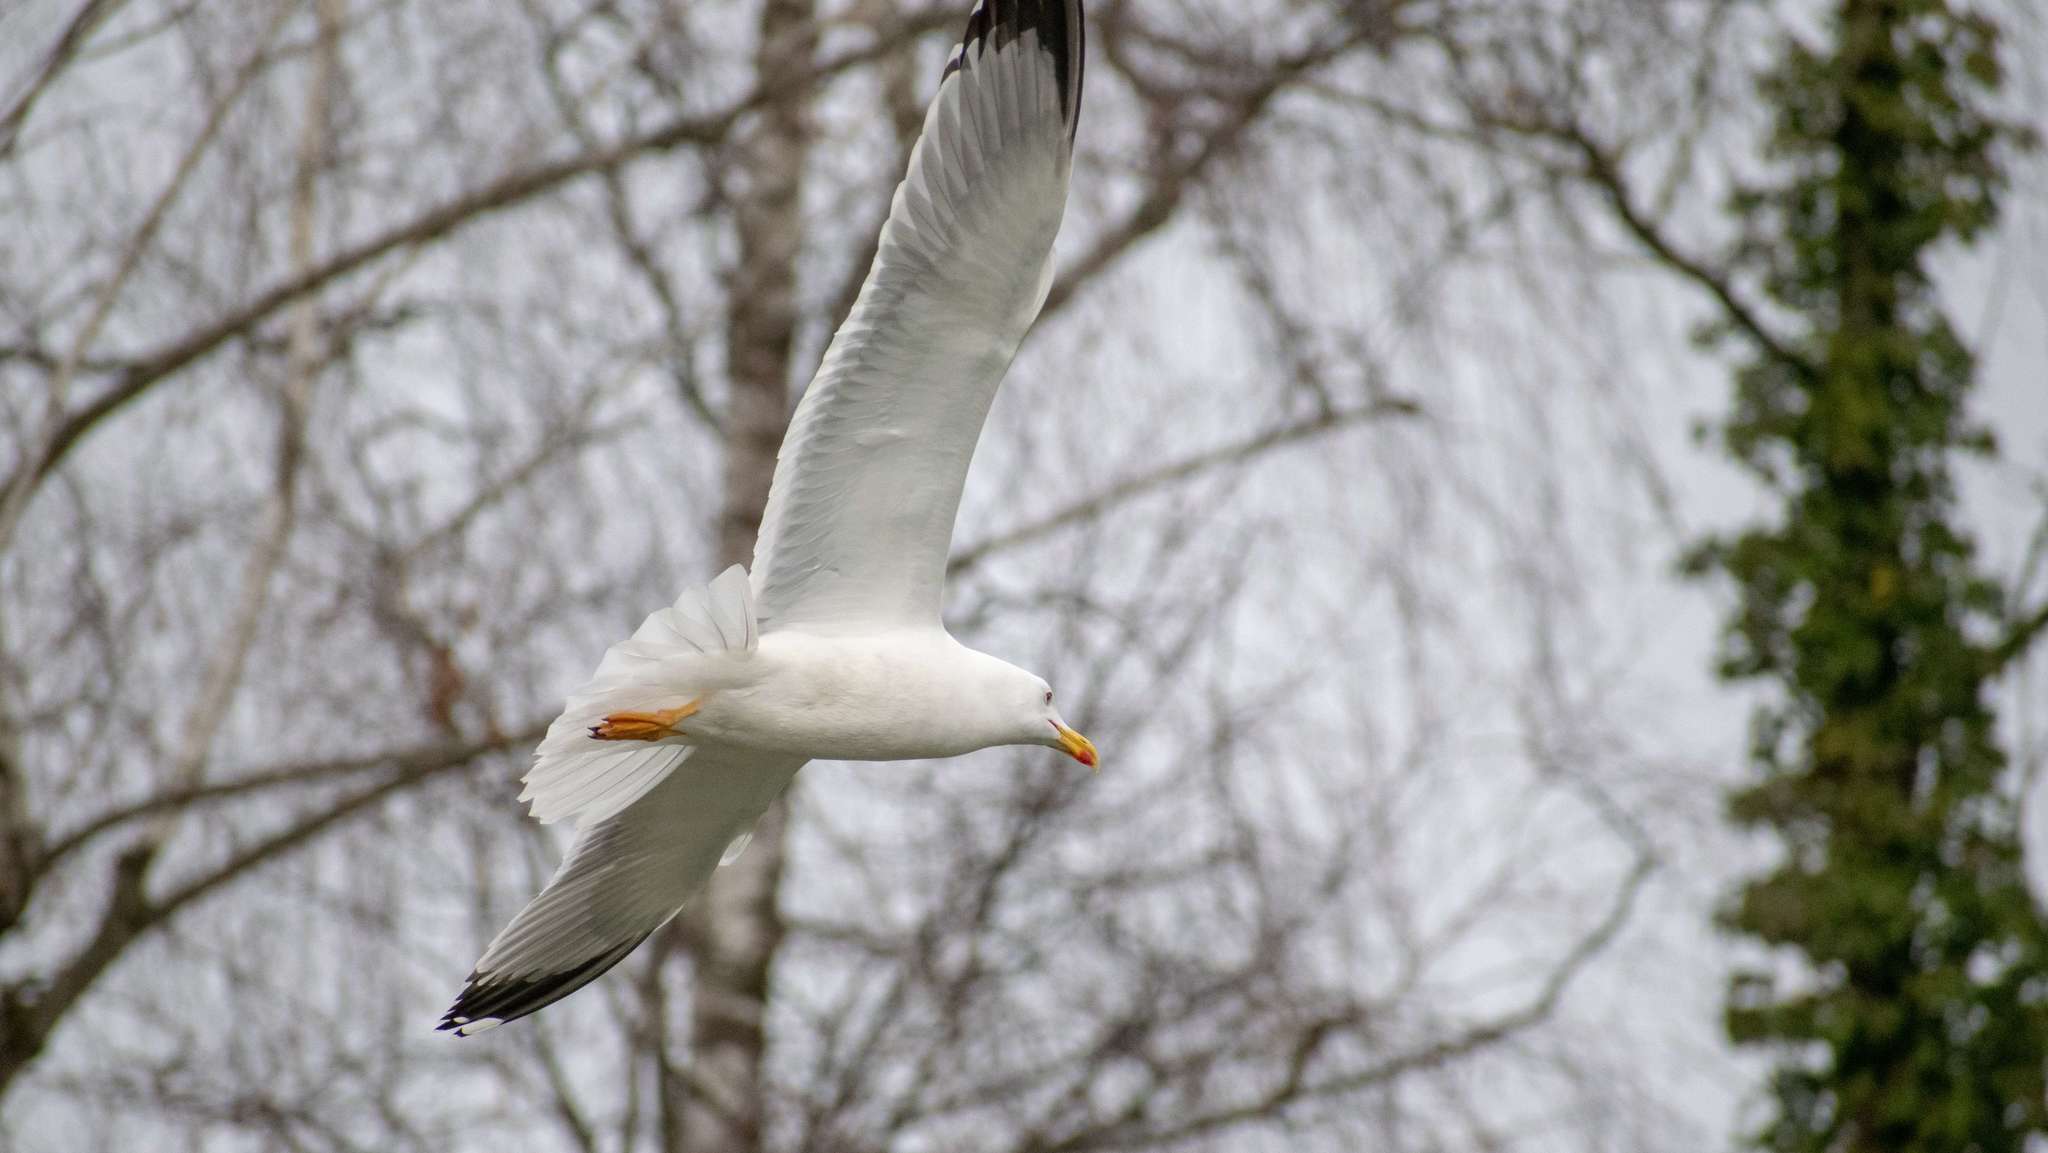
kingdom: Animalia
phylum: Chordata
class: Aves
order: Charadriiformes
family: Laridae
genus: Larus
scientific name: Larus michahellis
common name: Yellow-legged gull
